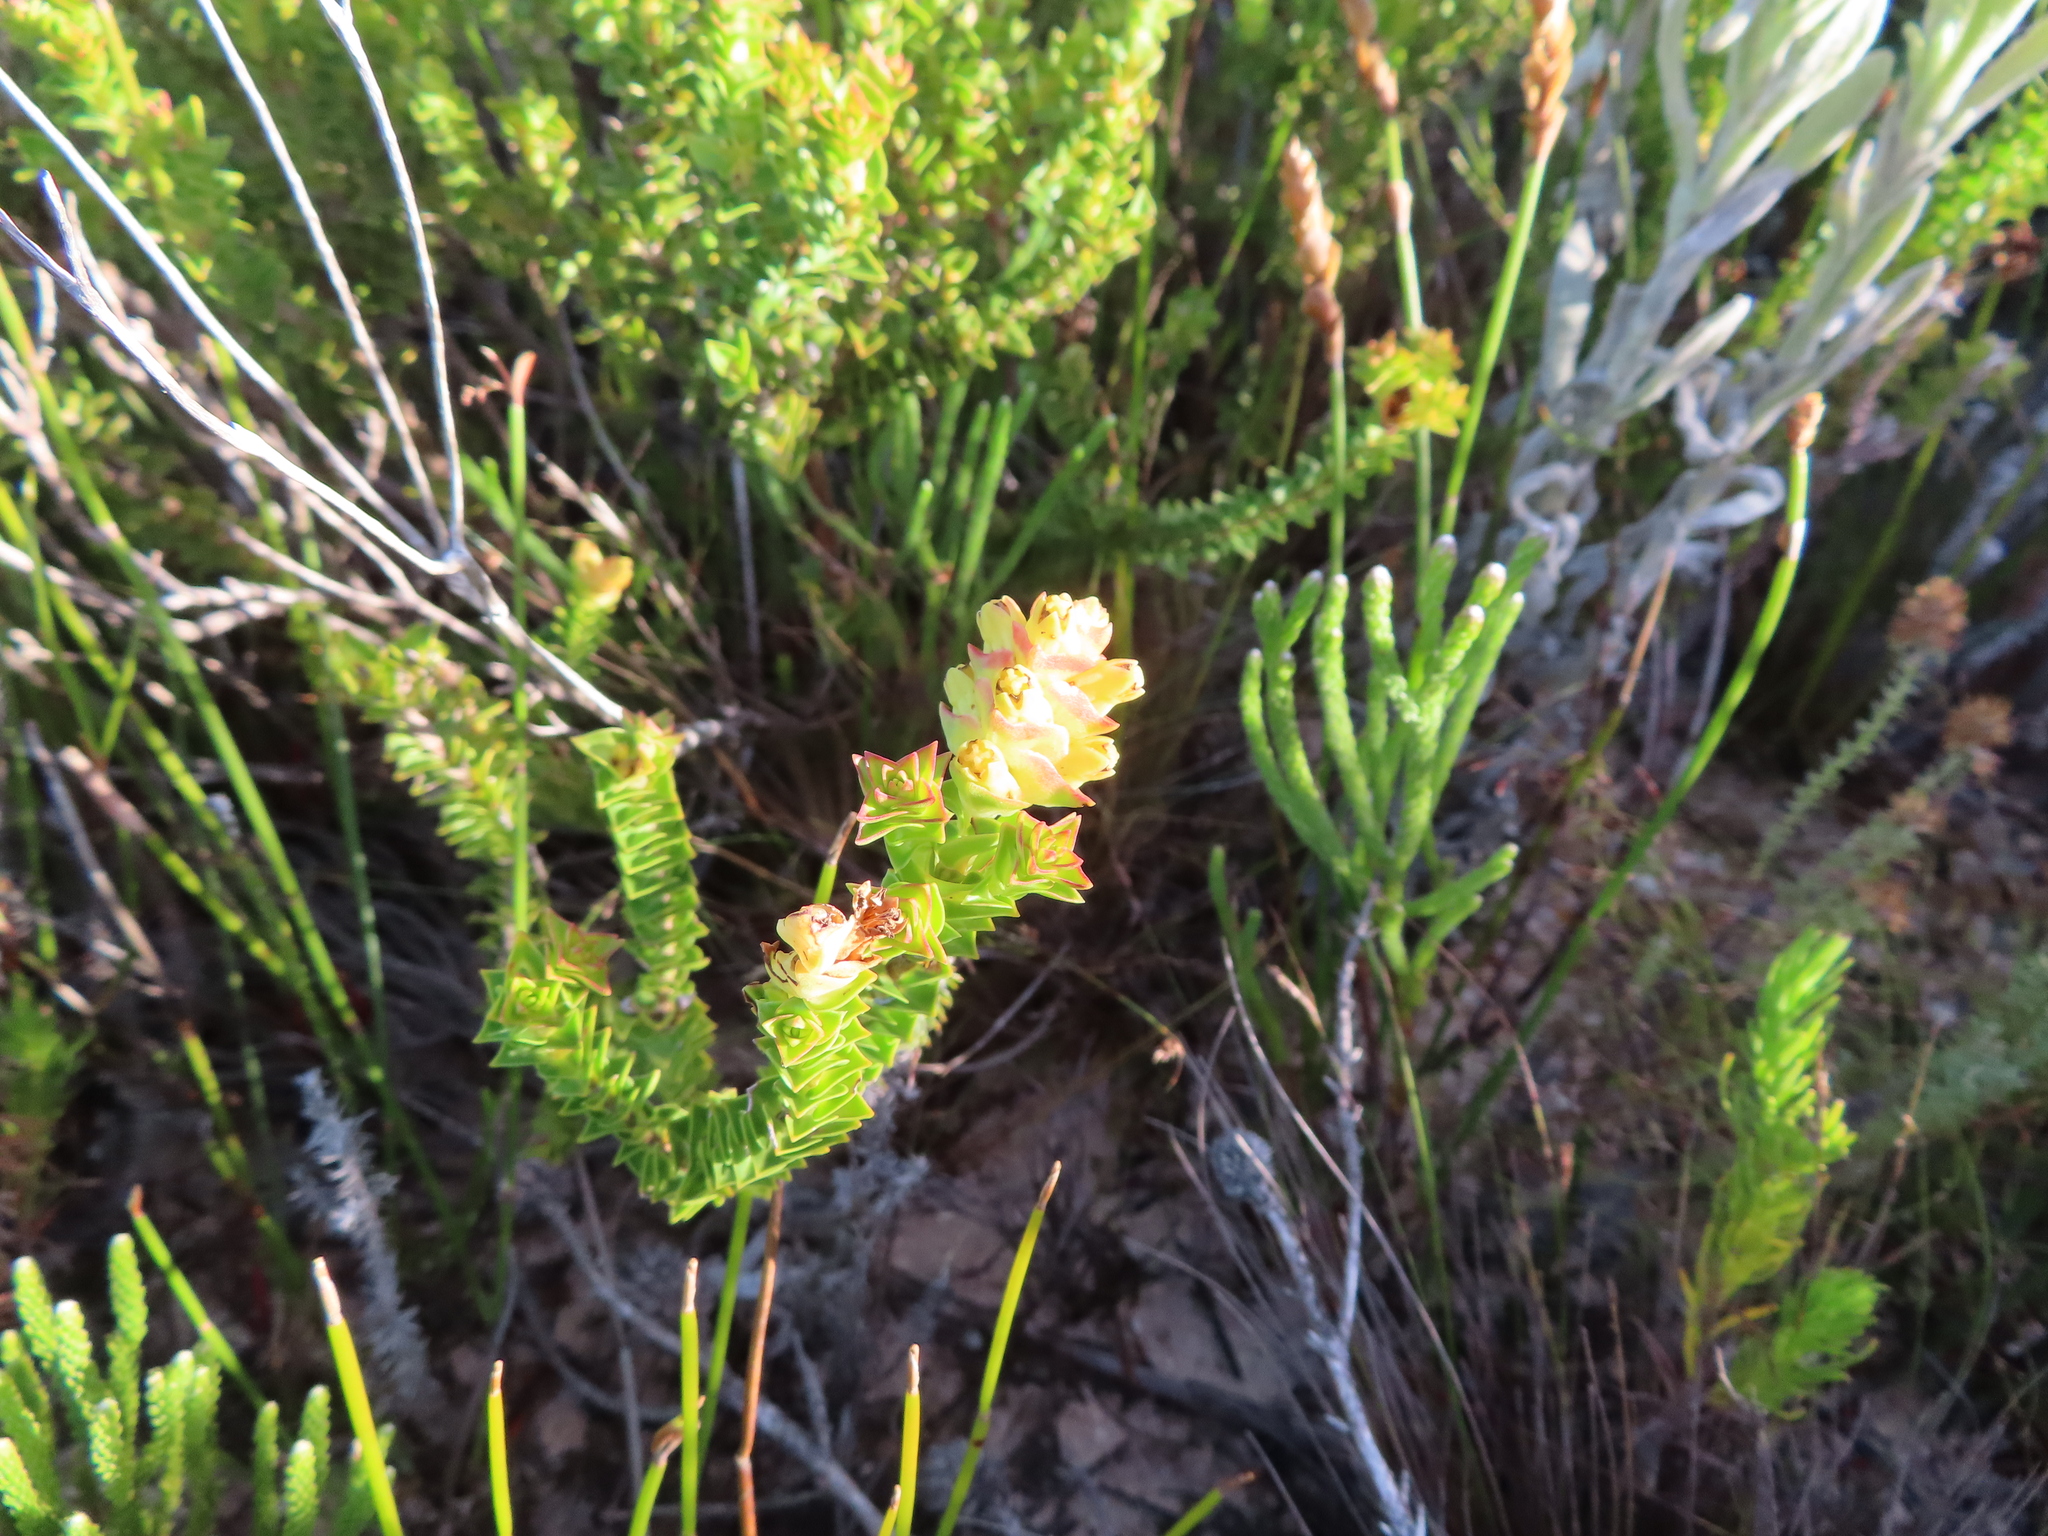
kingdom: Plantae
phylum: Tracheophyta
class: Magnoliopsida
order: Myrtales
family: Penaeaceae
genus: Penaea
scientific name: Penaea mucronata
